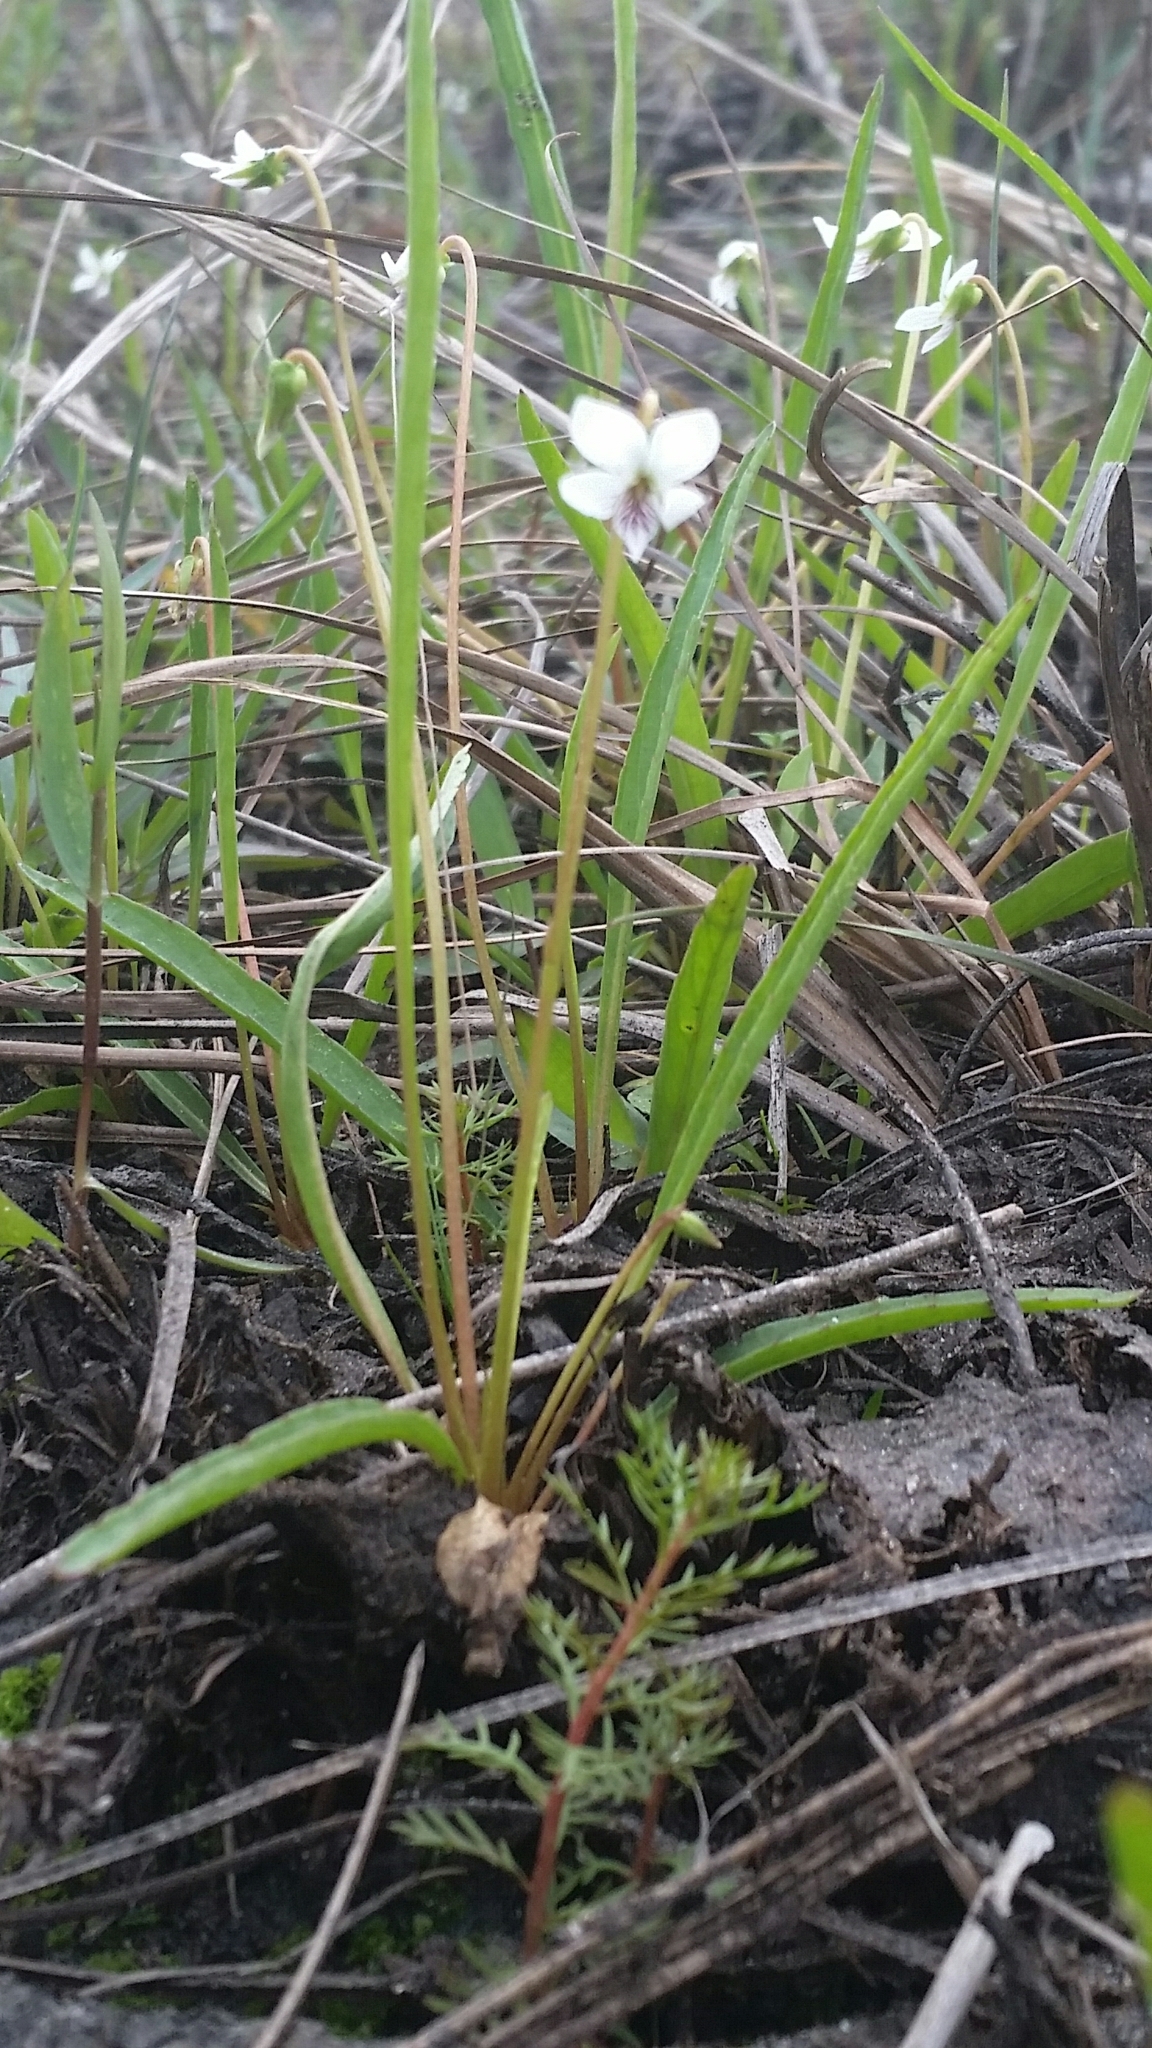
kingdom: Plantae
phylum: Tracheophyta
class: Magnoliopsida
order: Malpighiales
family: Violaceae
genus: Viola
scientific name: Viola vittata
